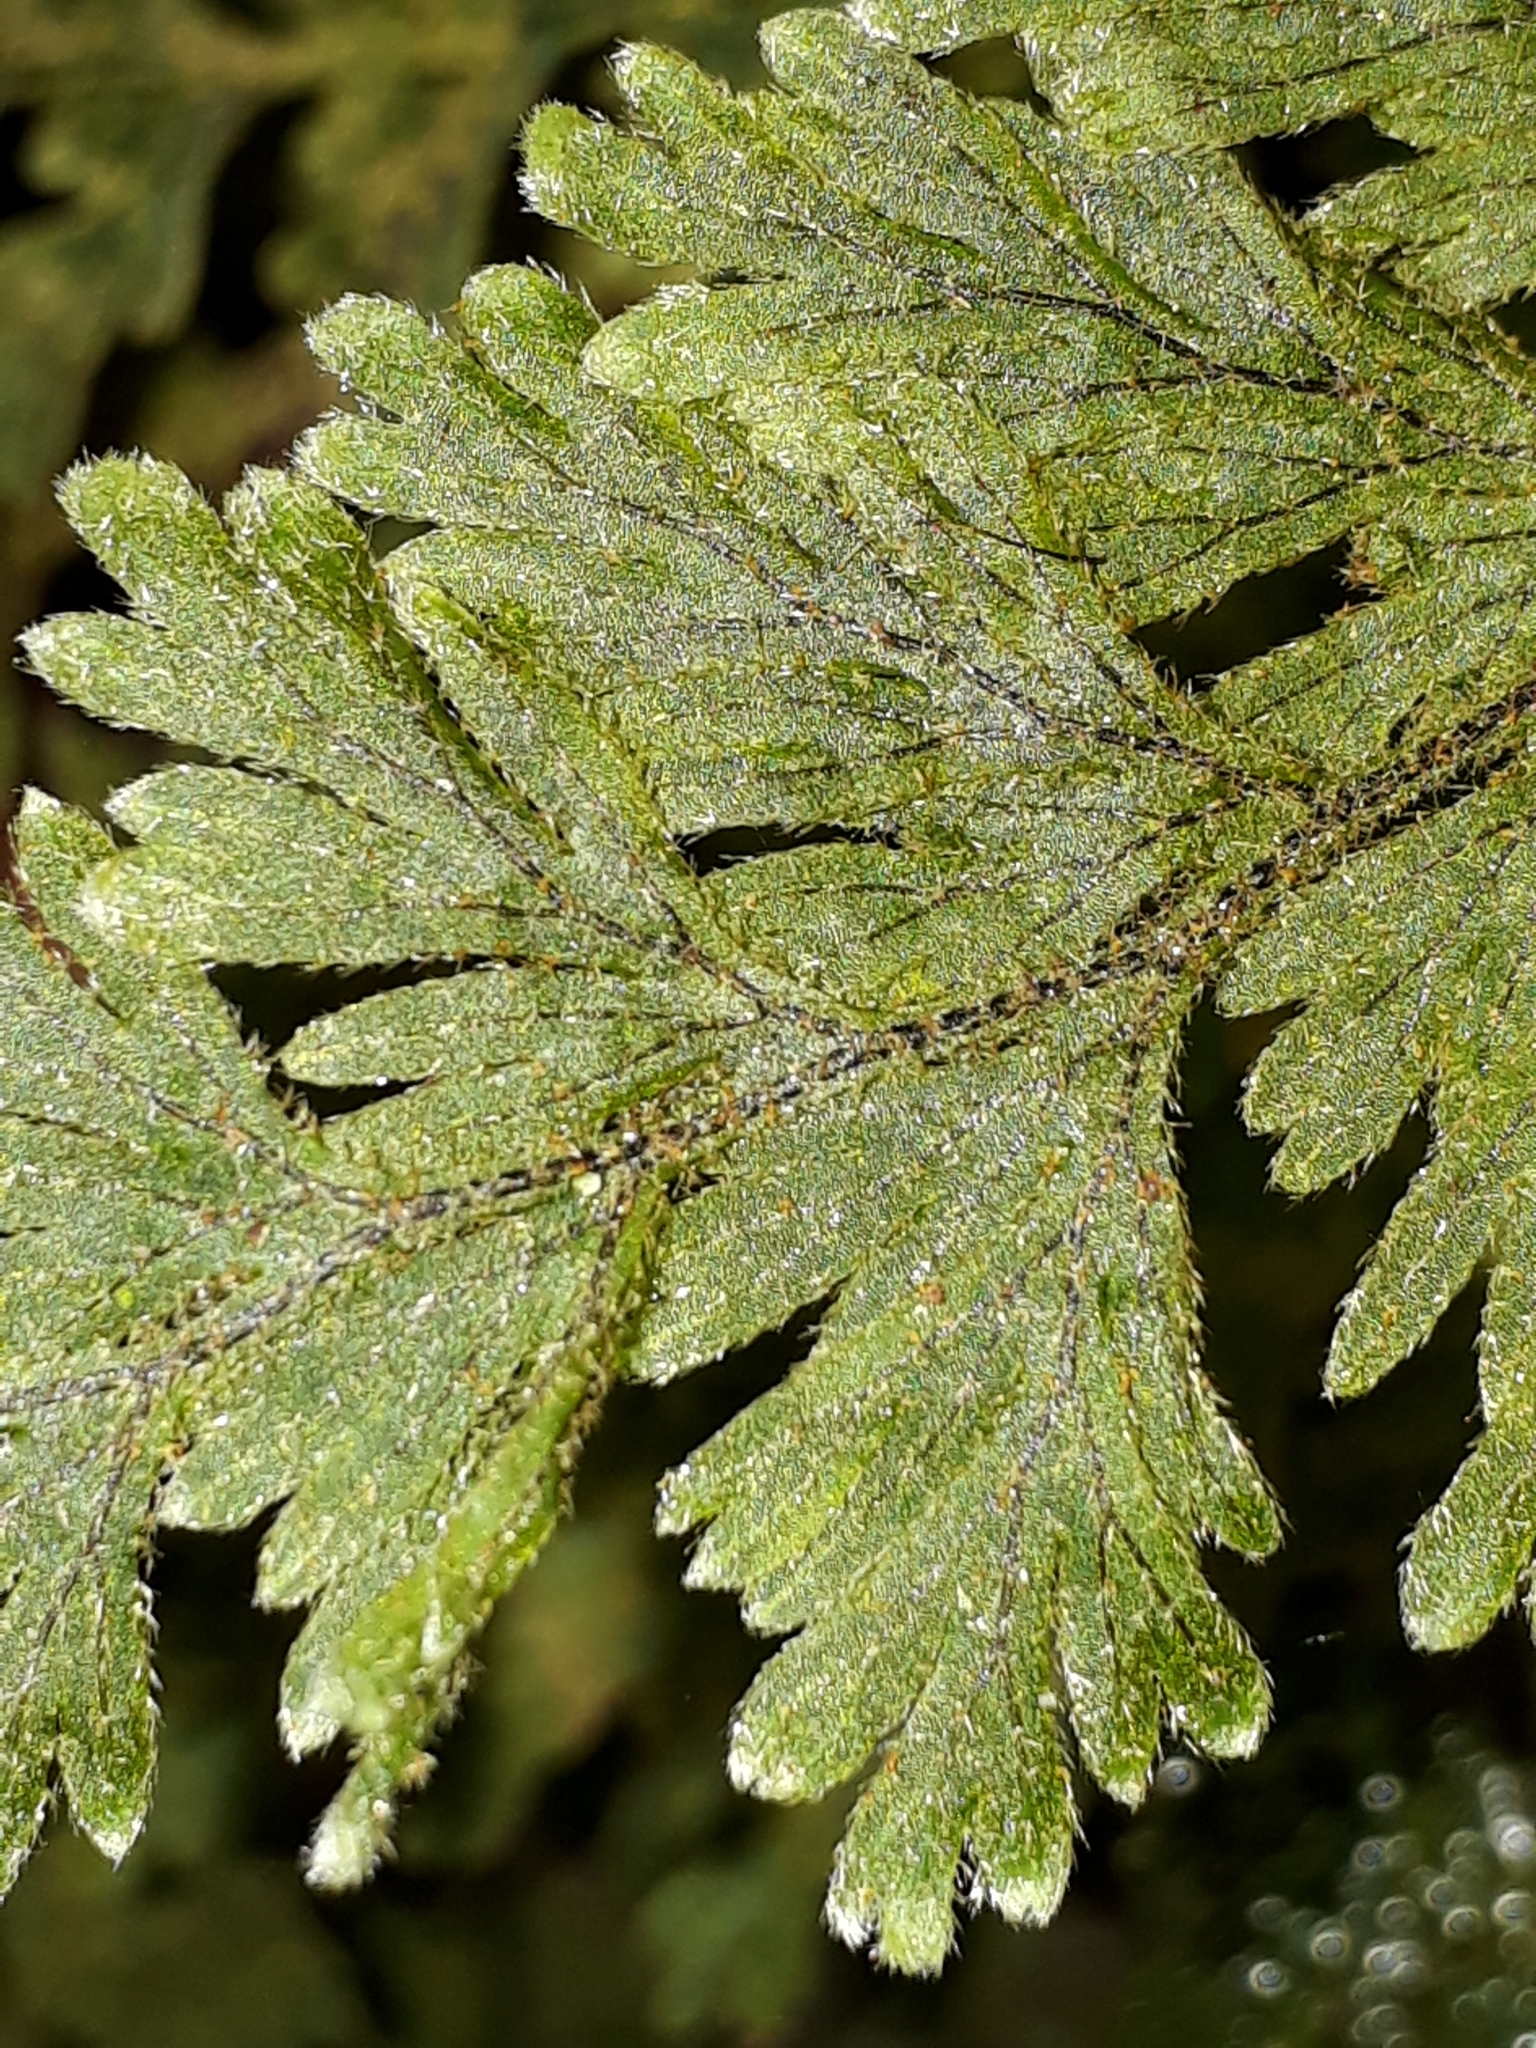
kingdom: Plantae
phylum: Tracheophyta
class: Polypodiopsida
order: Hymenophyllales
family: Hymenophyllaceae
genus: Hymenophyllum
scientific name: Hymenophyllum frankliniae
